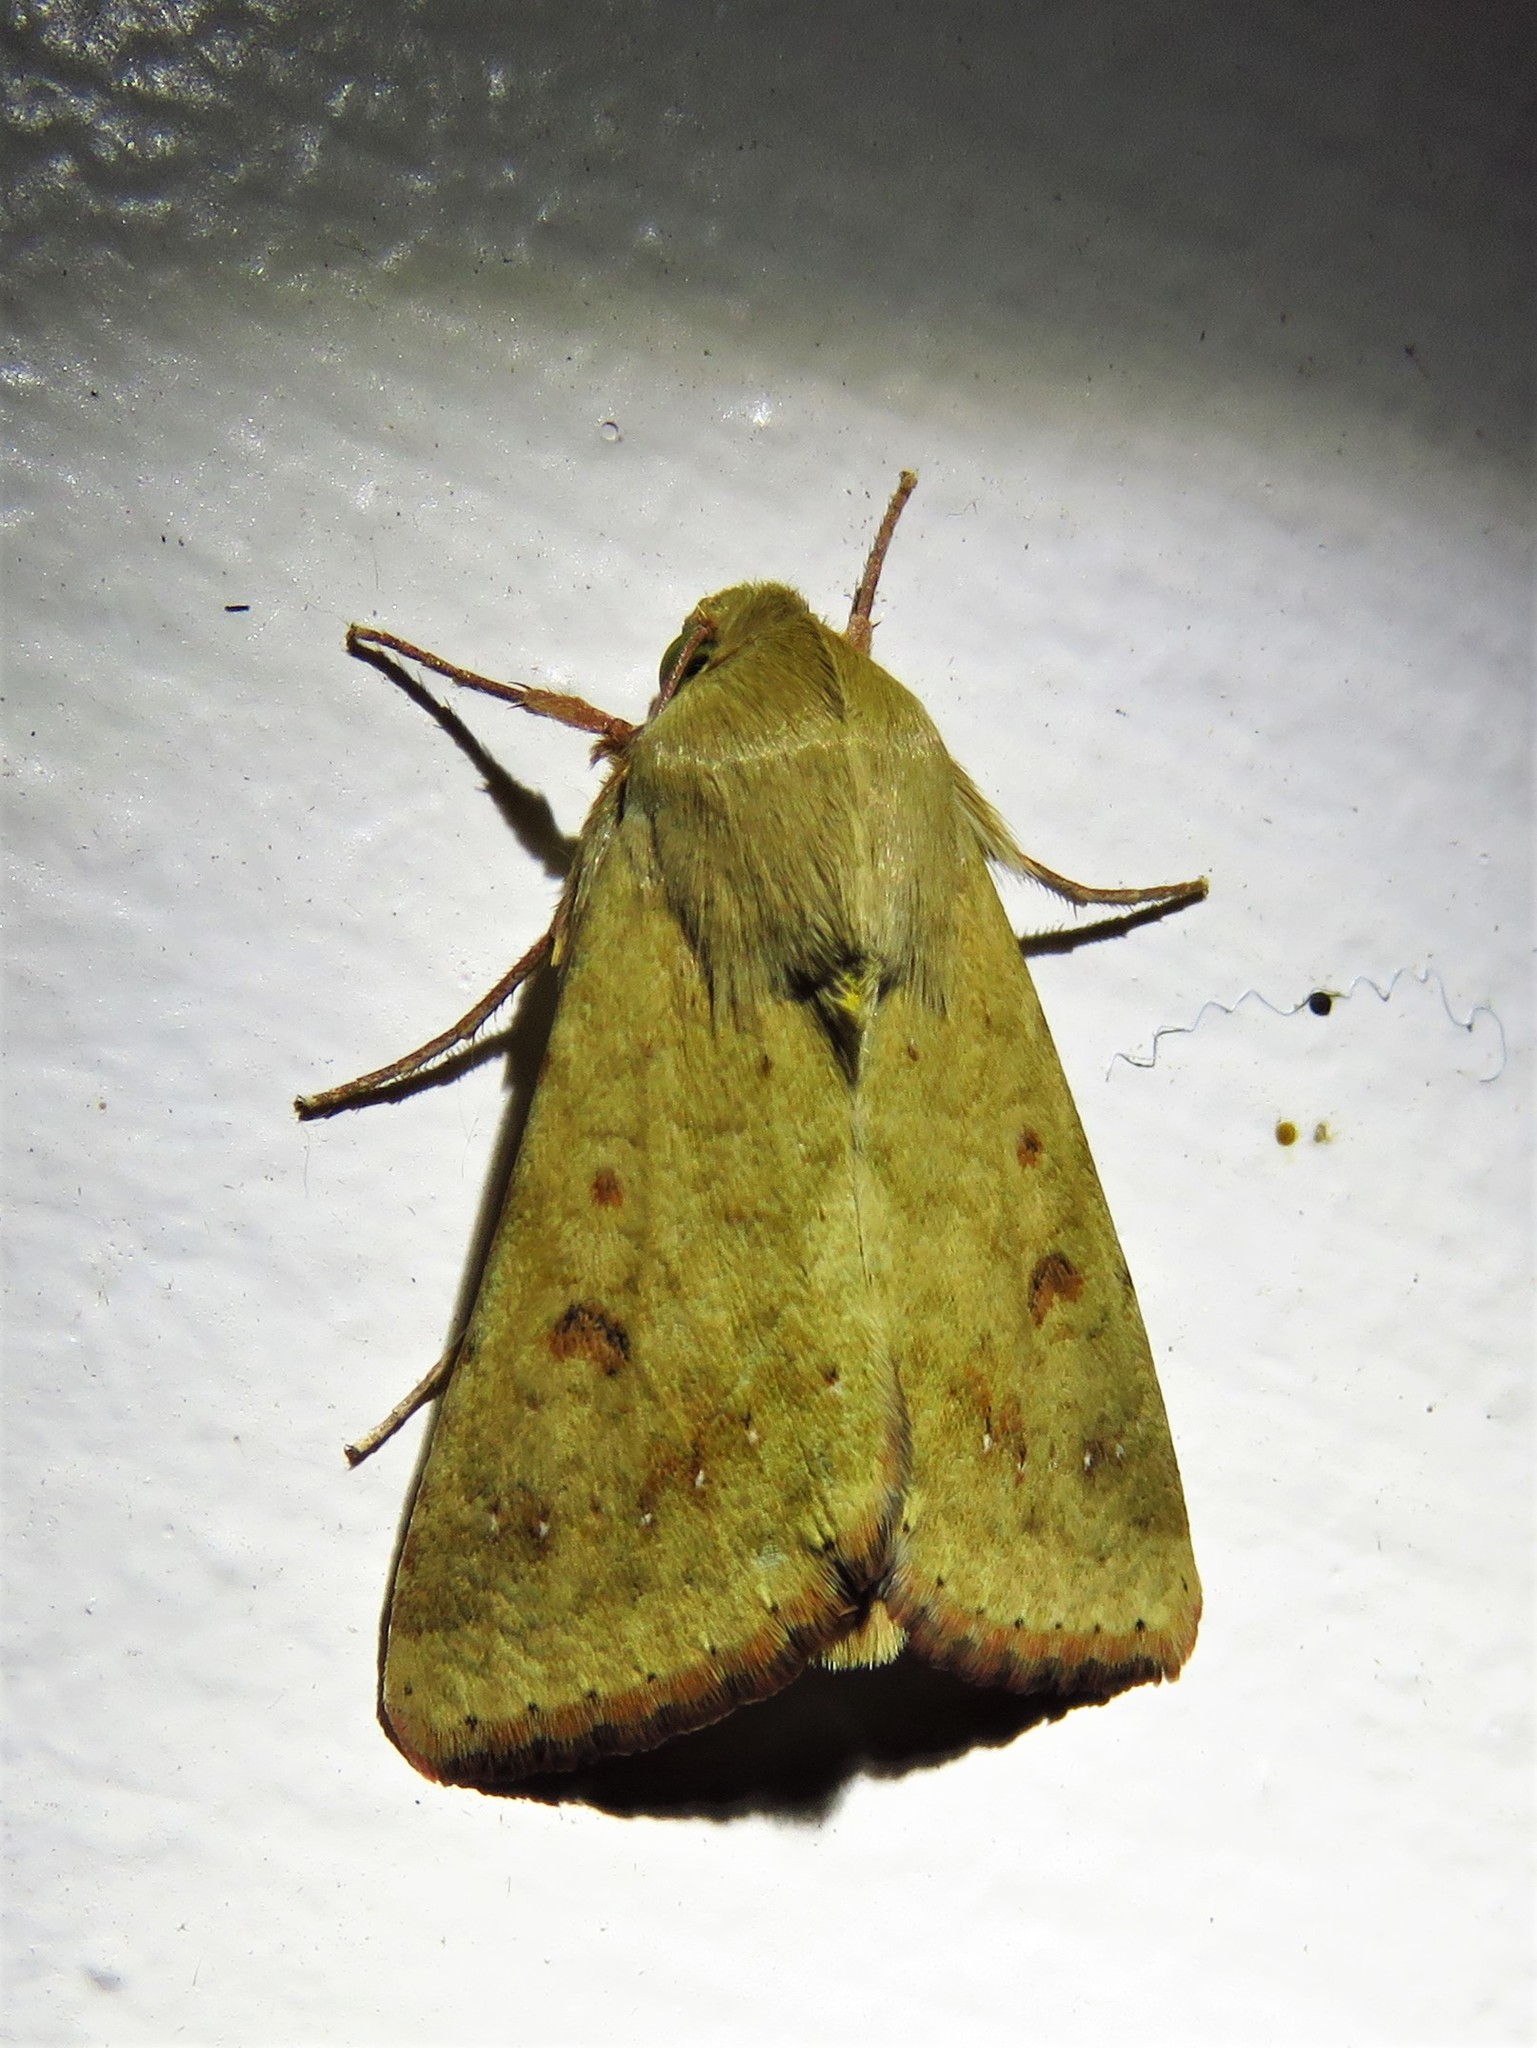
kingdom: Animalia
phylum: Arthropoda
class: Insecta
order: Lepidoptera
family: Noctuidae
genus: Helicoverpa
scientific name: Helicoverpa zea
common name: Bollworm
